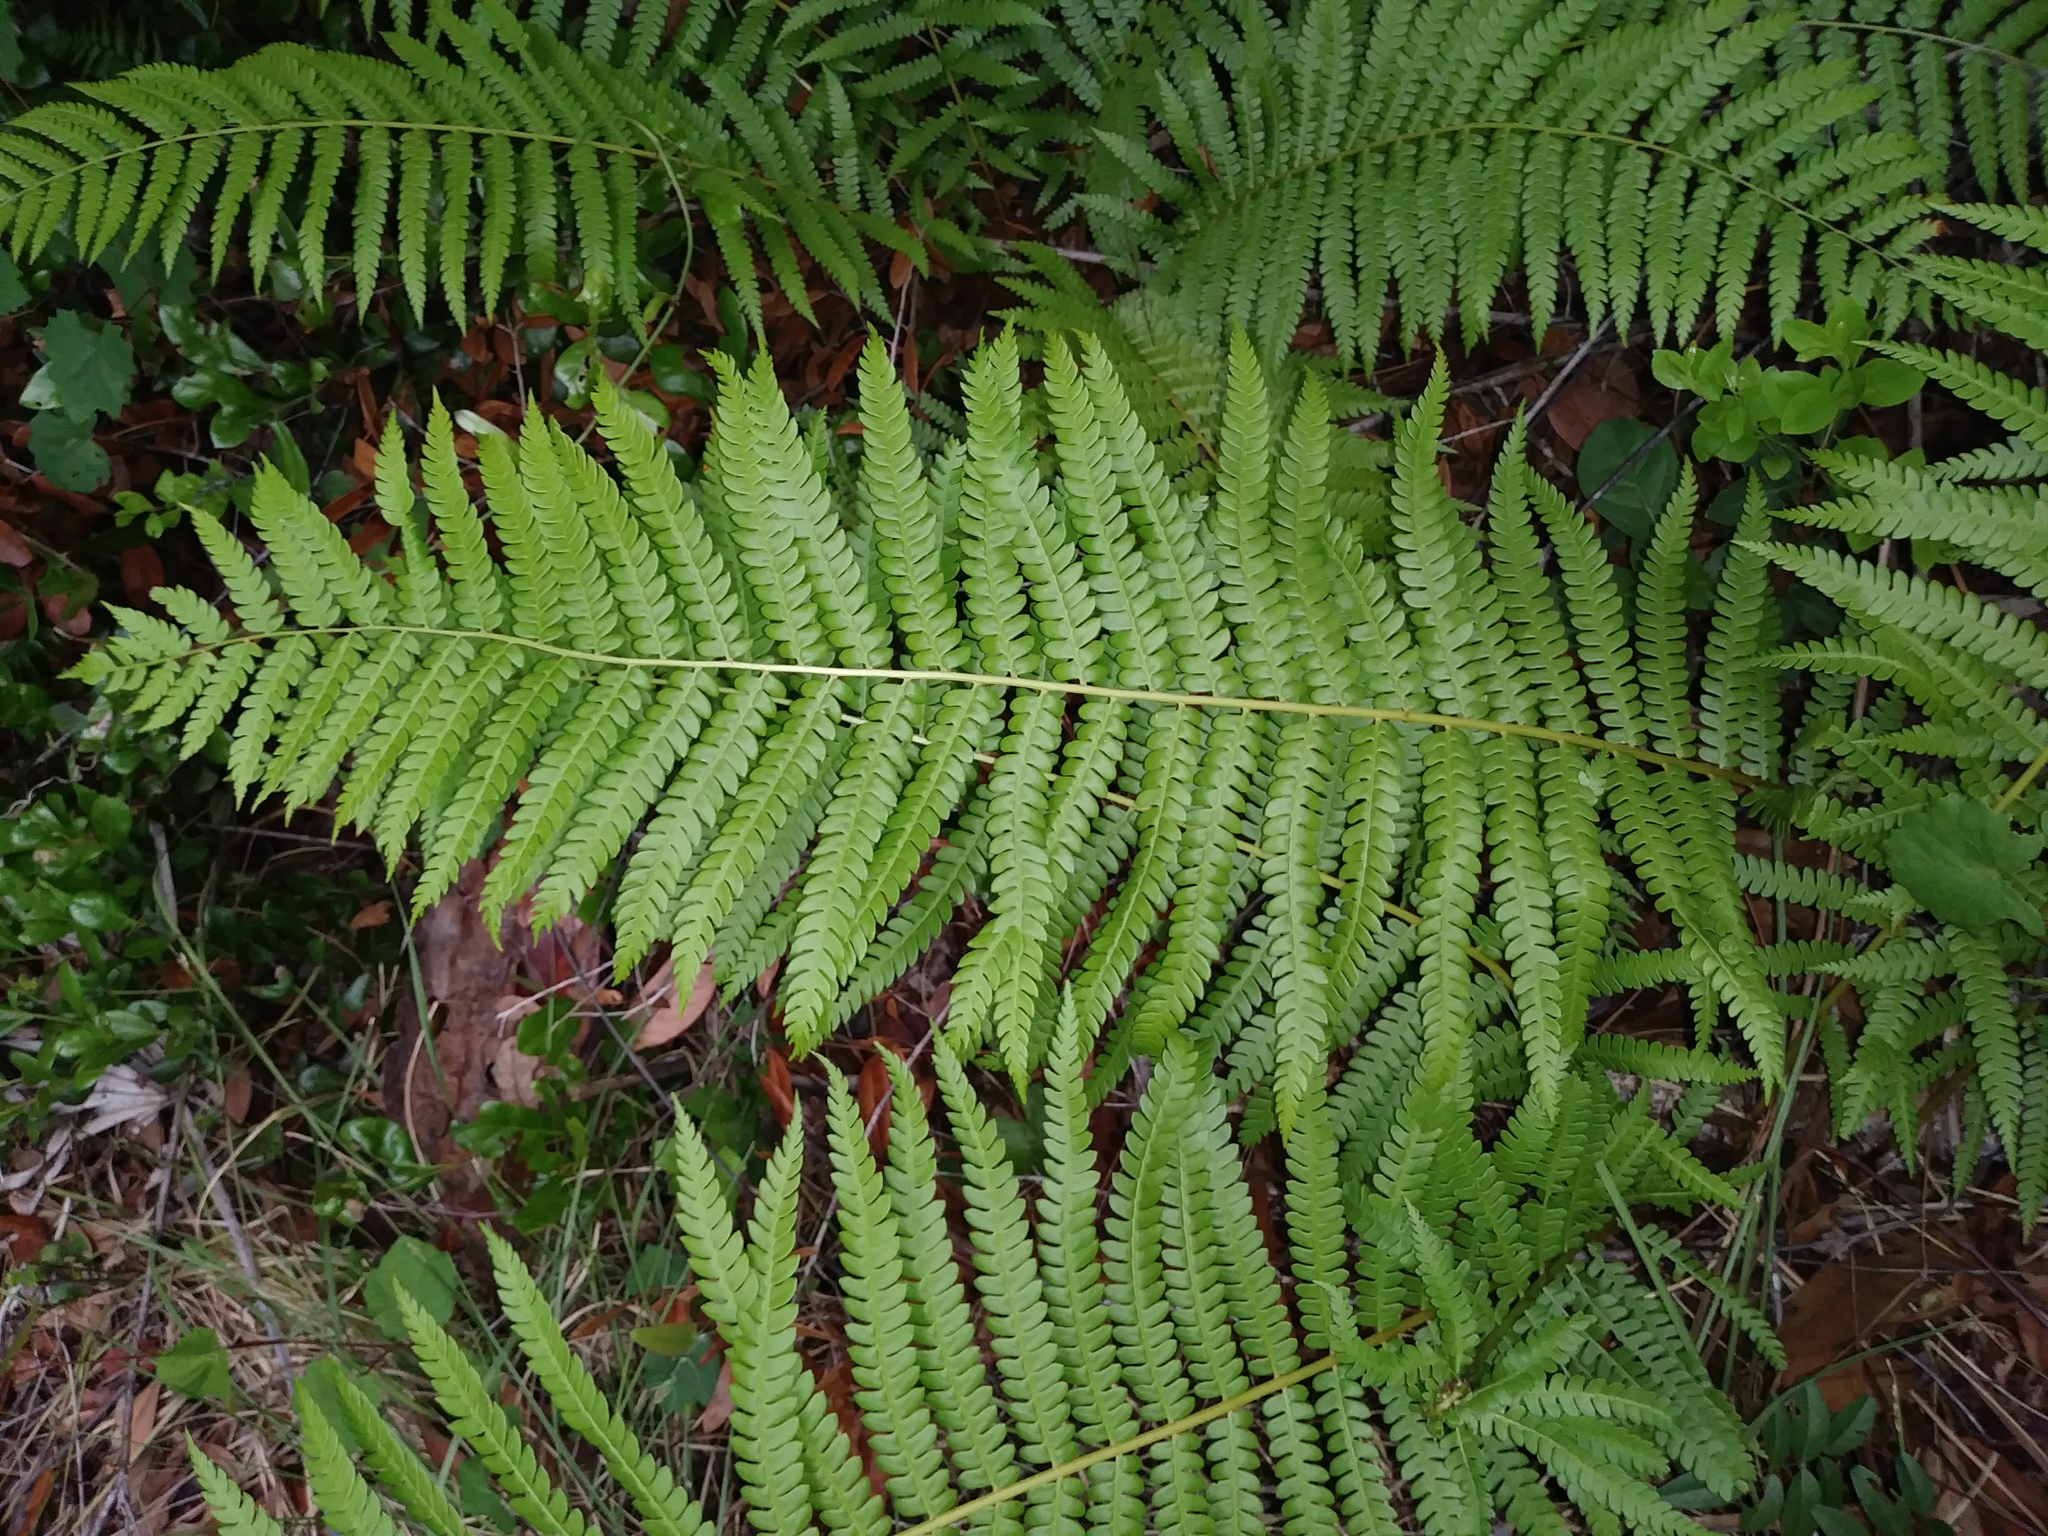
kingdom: Plantae
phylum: Tracheophyta
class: Polypodiopsida
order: Osmundales
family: Osmundaceae
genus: Osmundastrum
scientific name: Osmundastrum cinnamomeum
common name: Cinnamon fern
